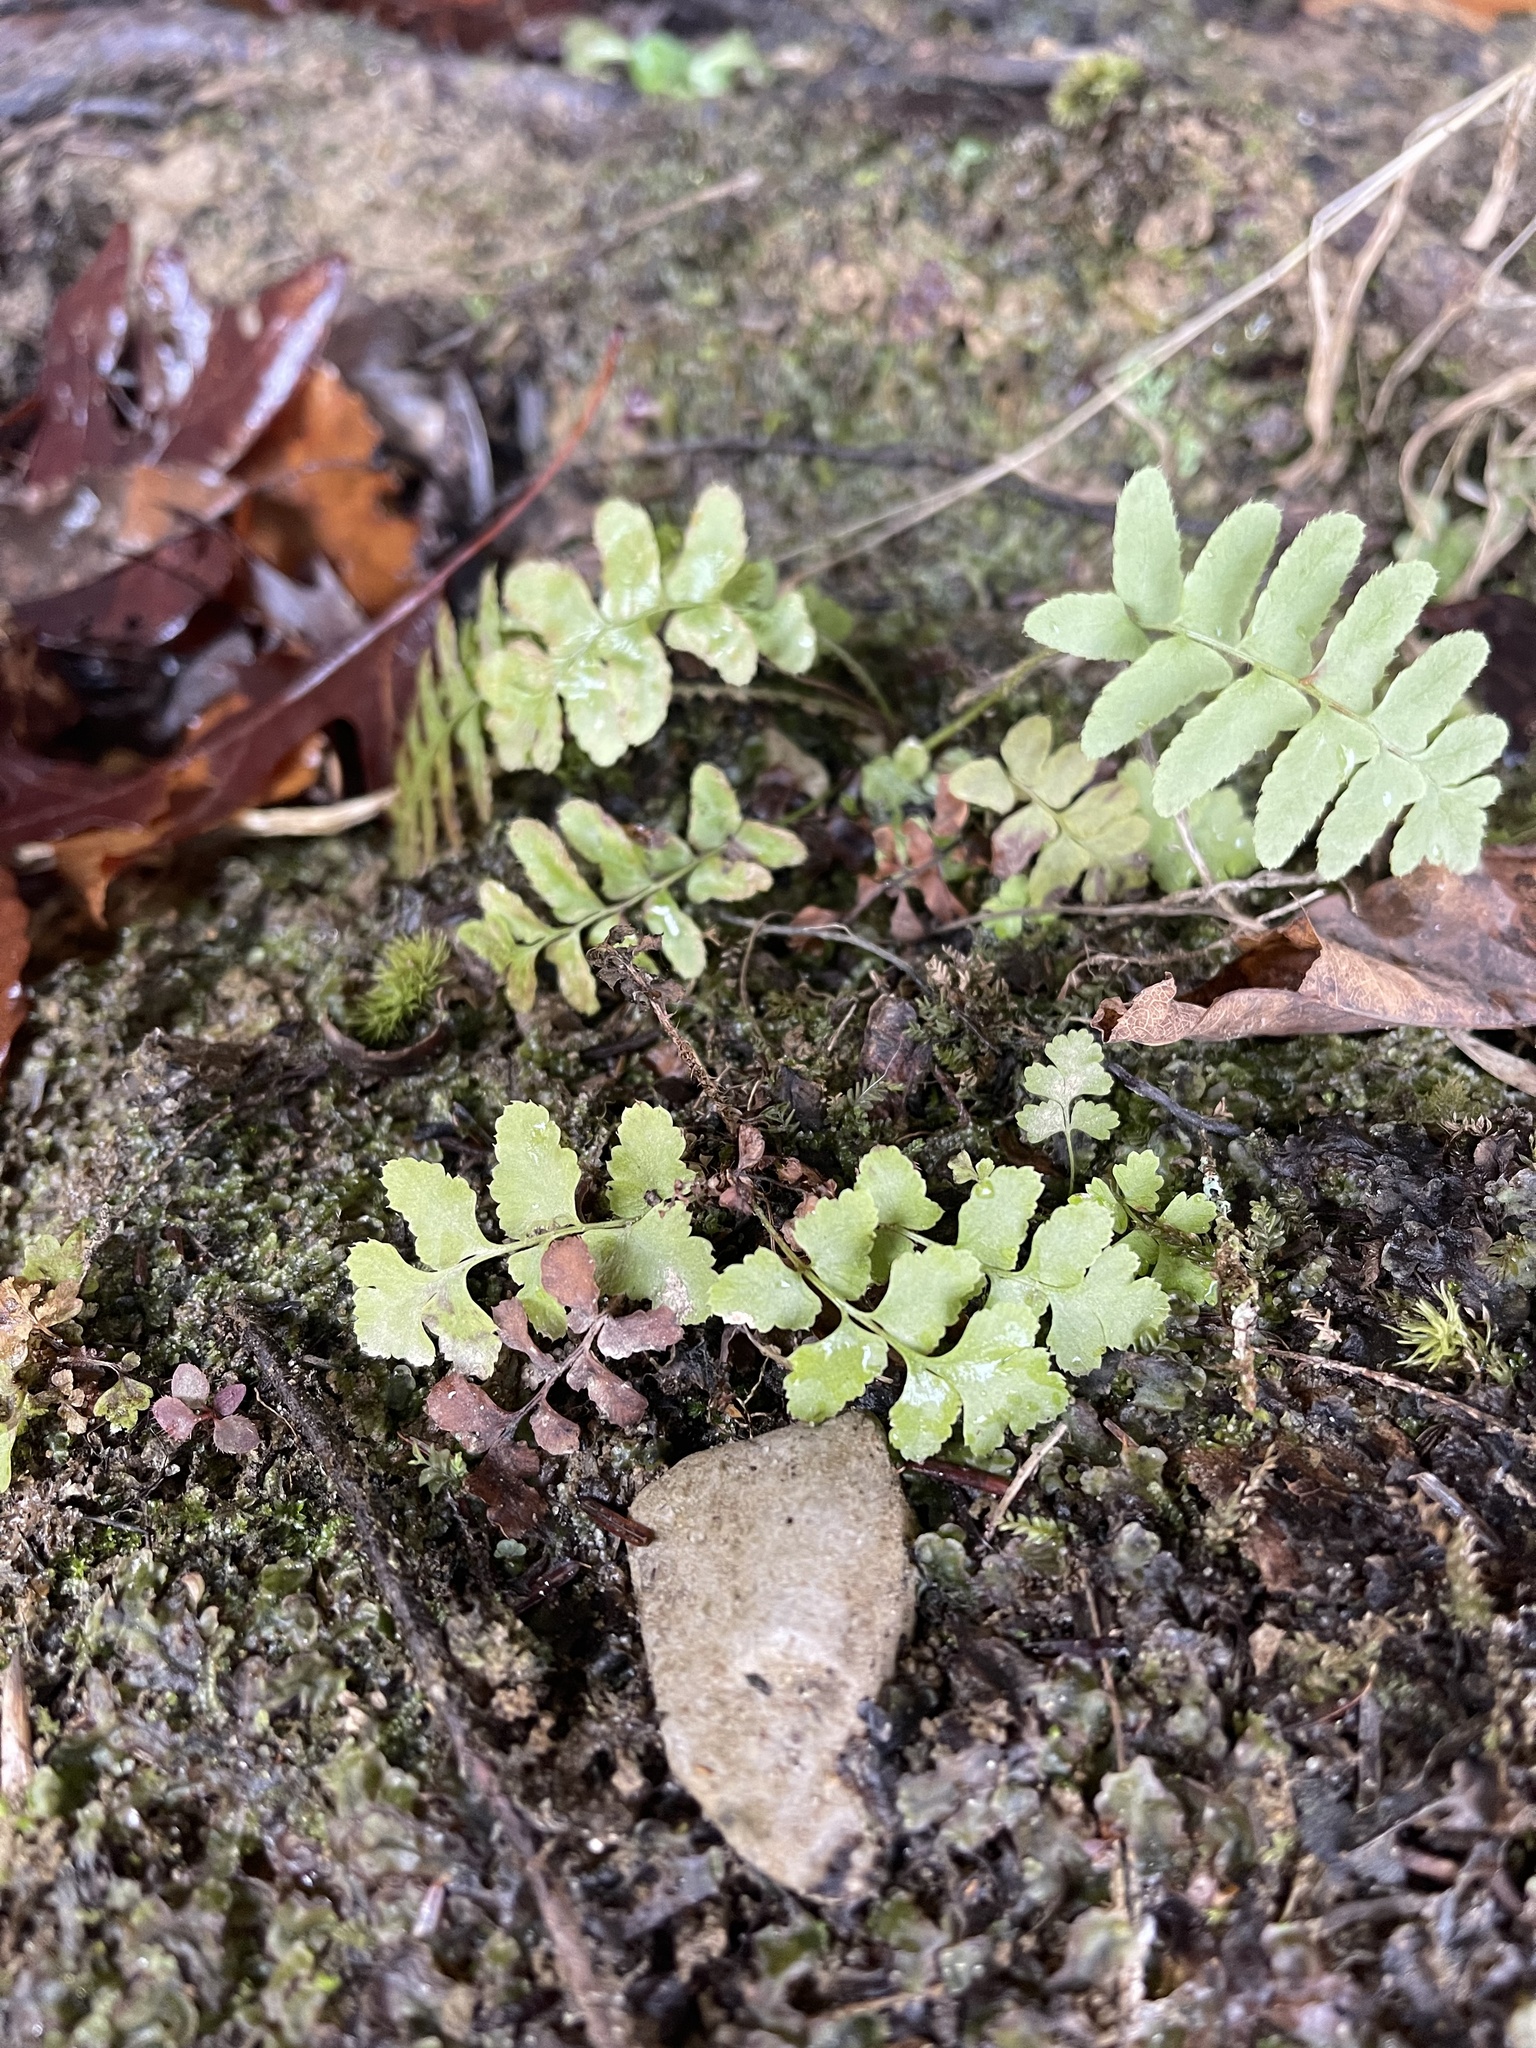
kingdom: Plantae
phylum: Tracheophyta
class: Polypodiopsida
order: Polypodiales
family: Dryopteridaceae
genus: Polystichum
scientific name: Polystichum acrostichoides
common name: Christmas fern
